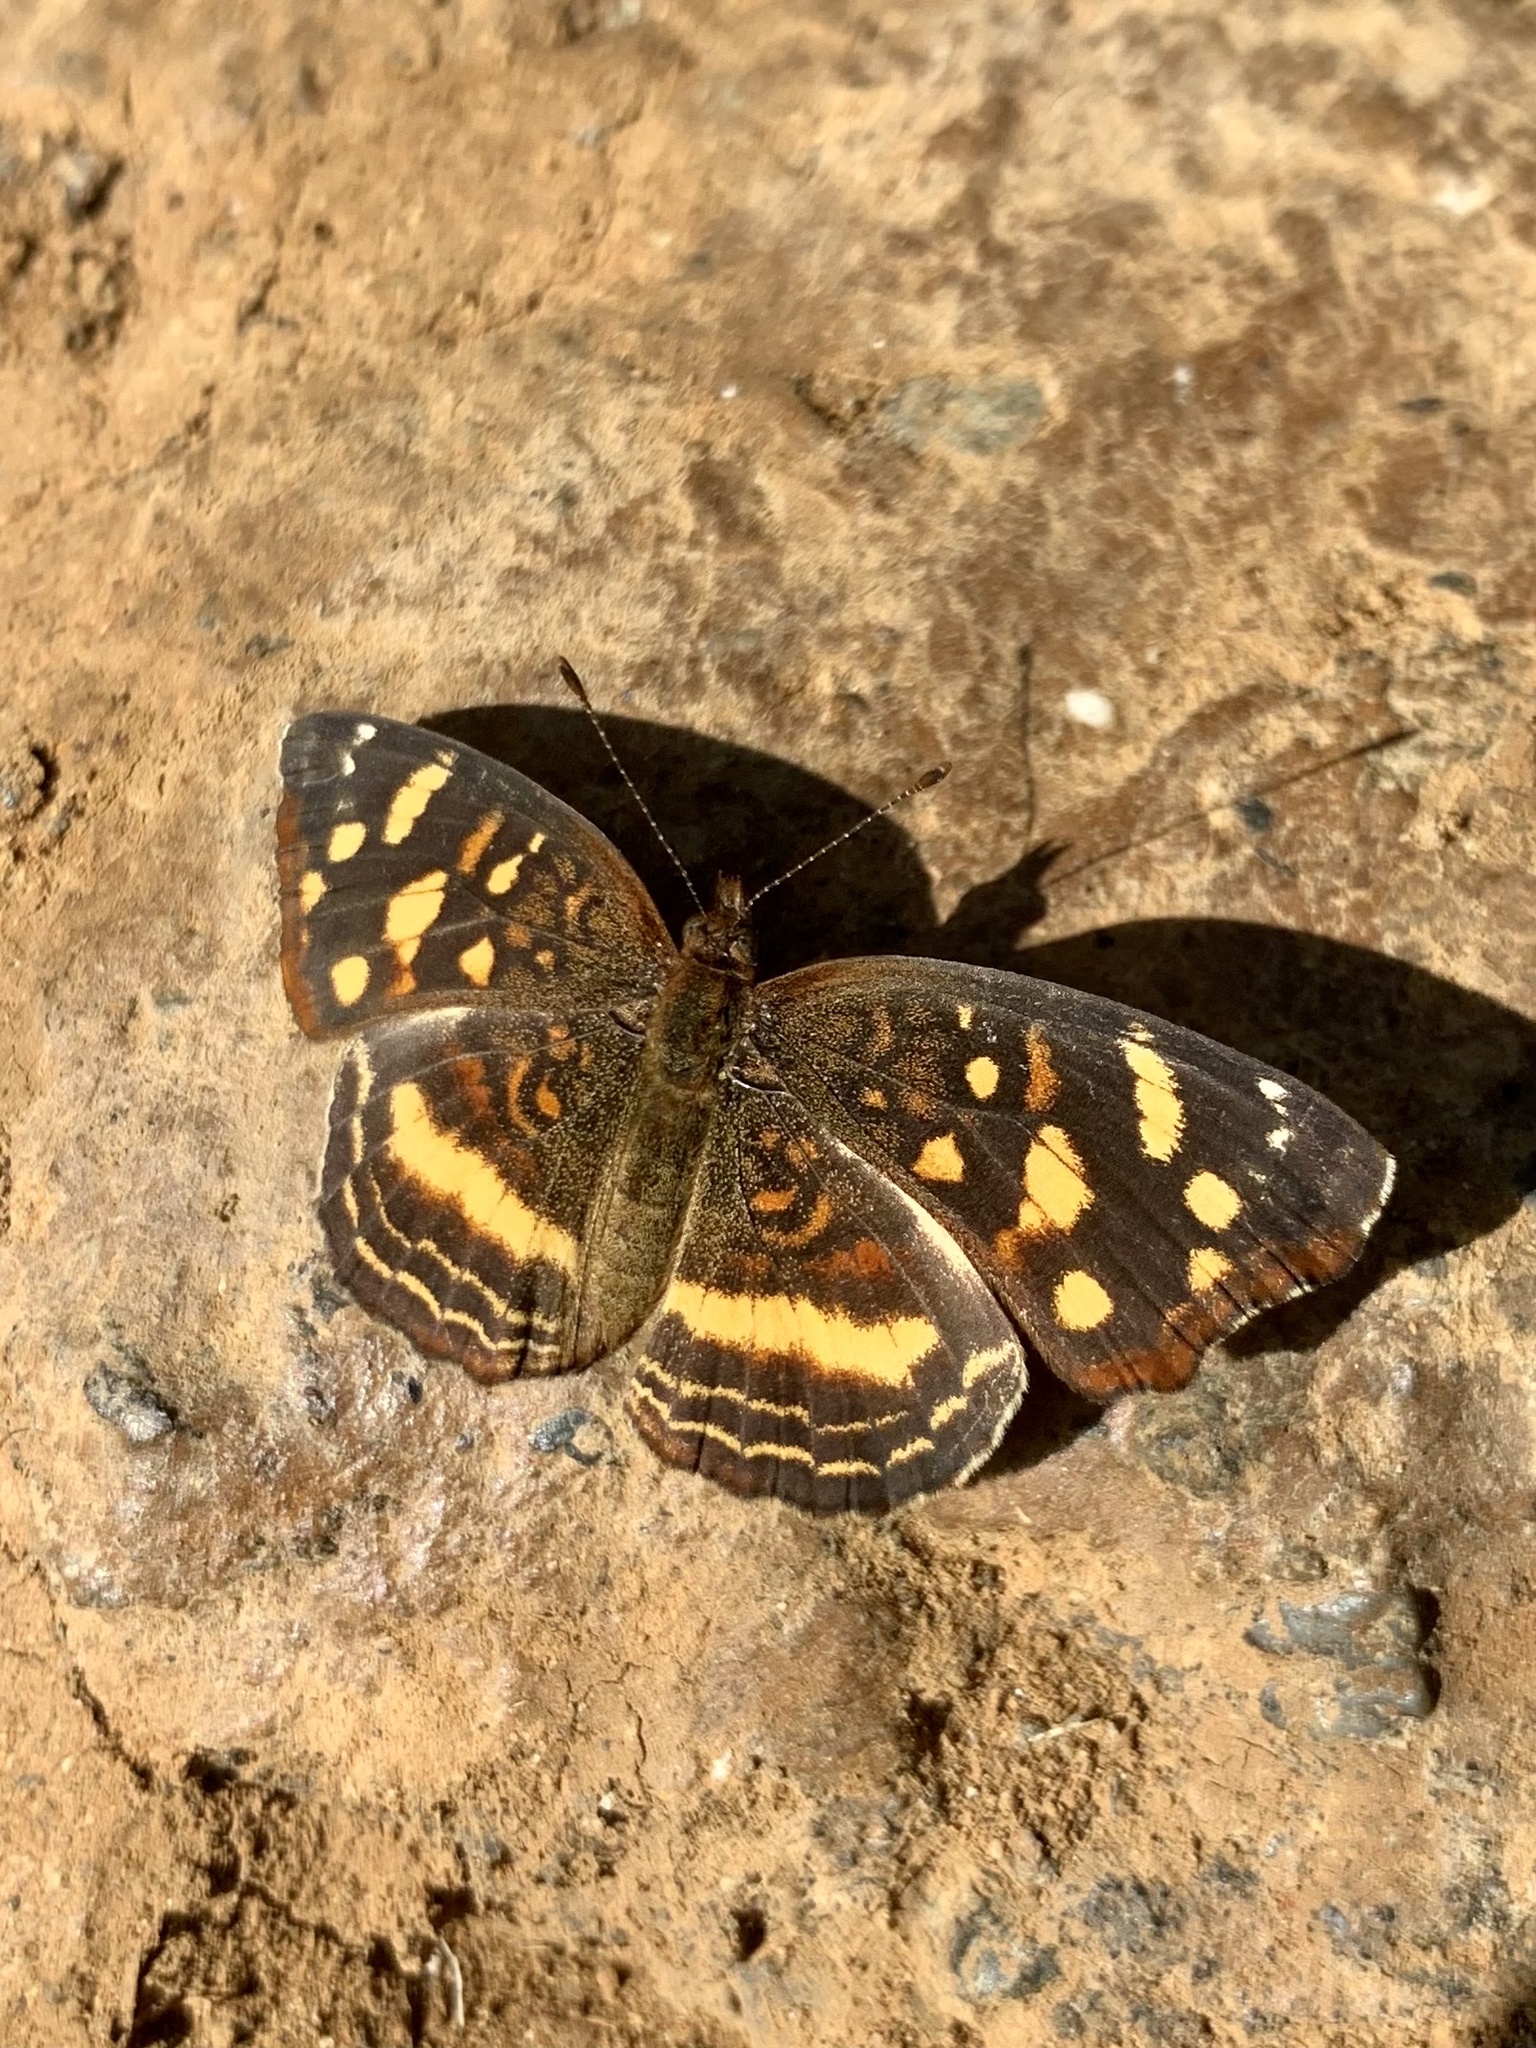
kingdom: Animalia
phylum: Arthropoda
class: Insecta
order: Lepidoptera
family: Nymphalidae
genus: Anthanassa
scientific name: Anthanassa drusilla
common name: Orange-patched crescent
